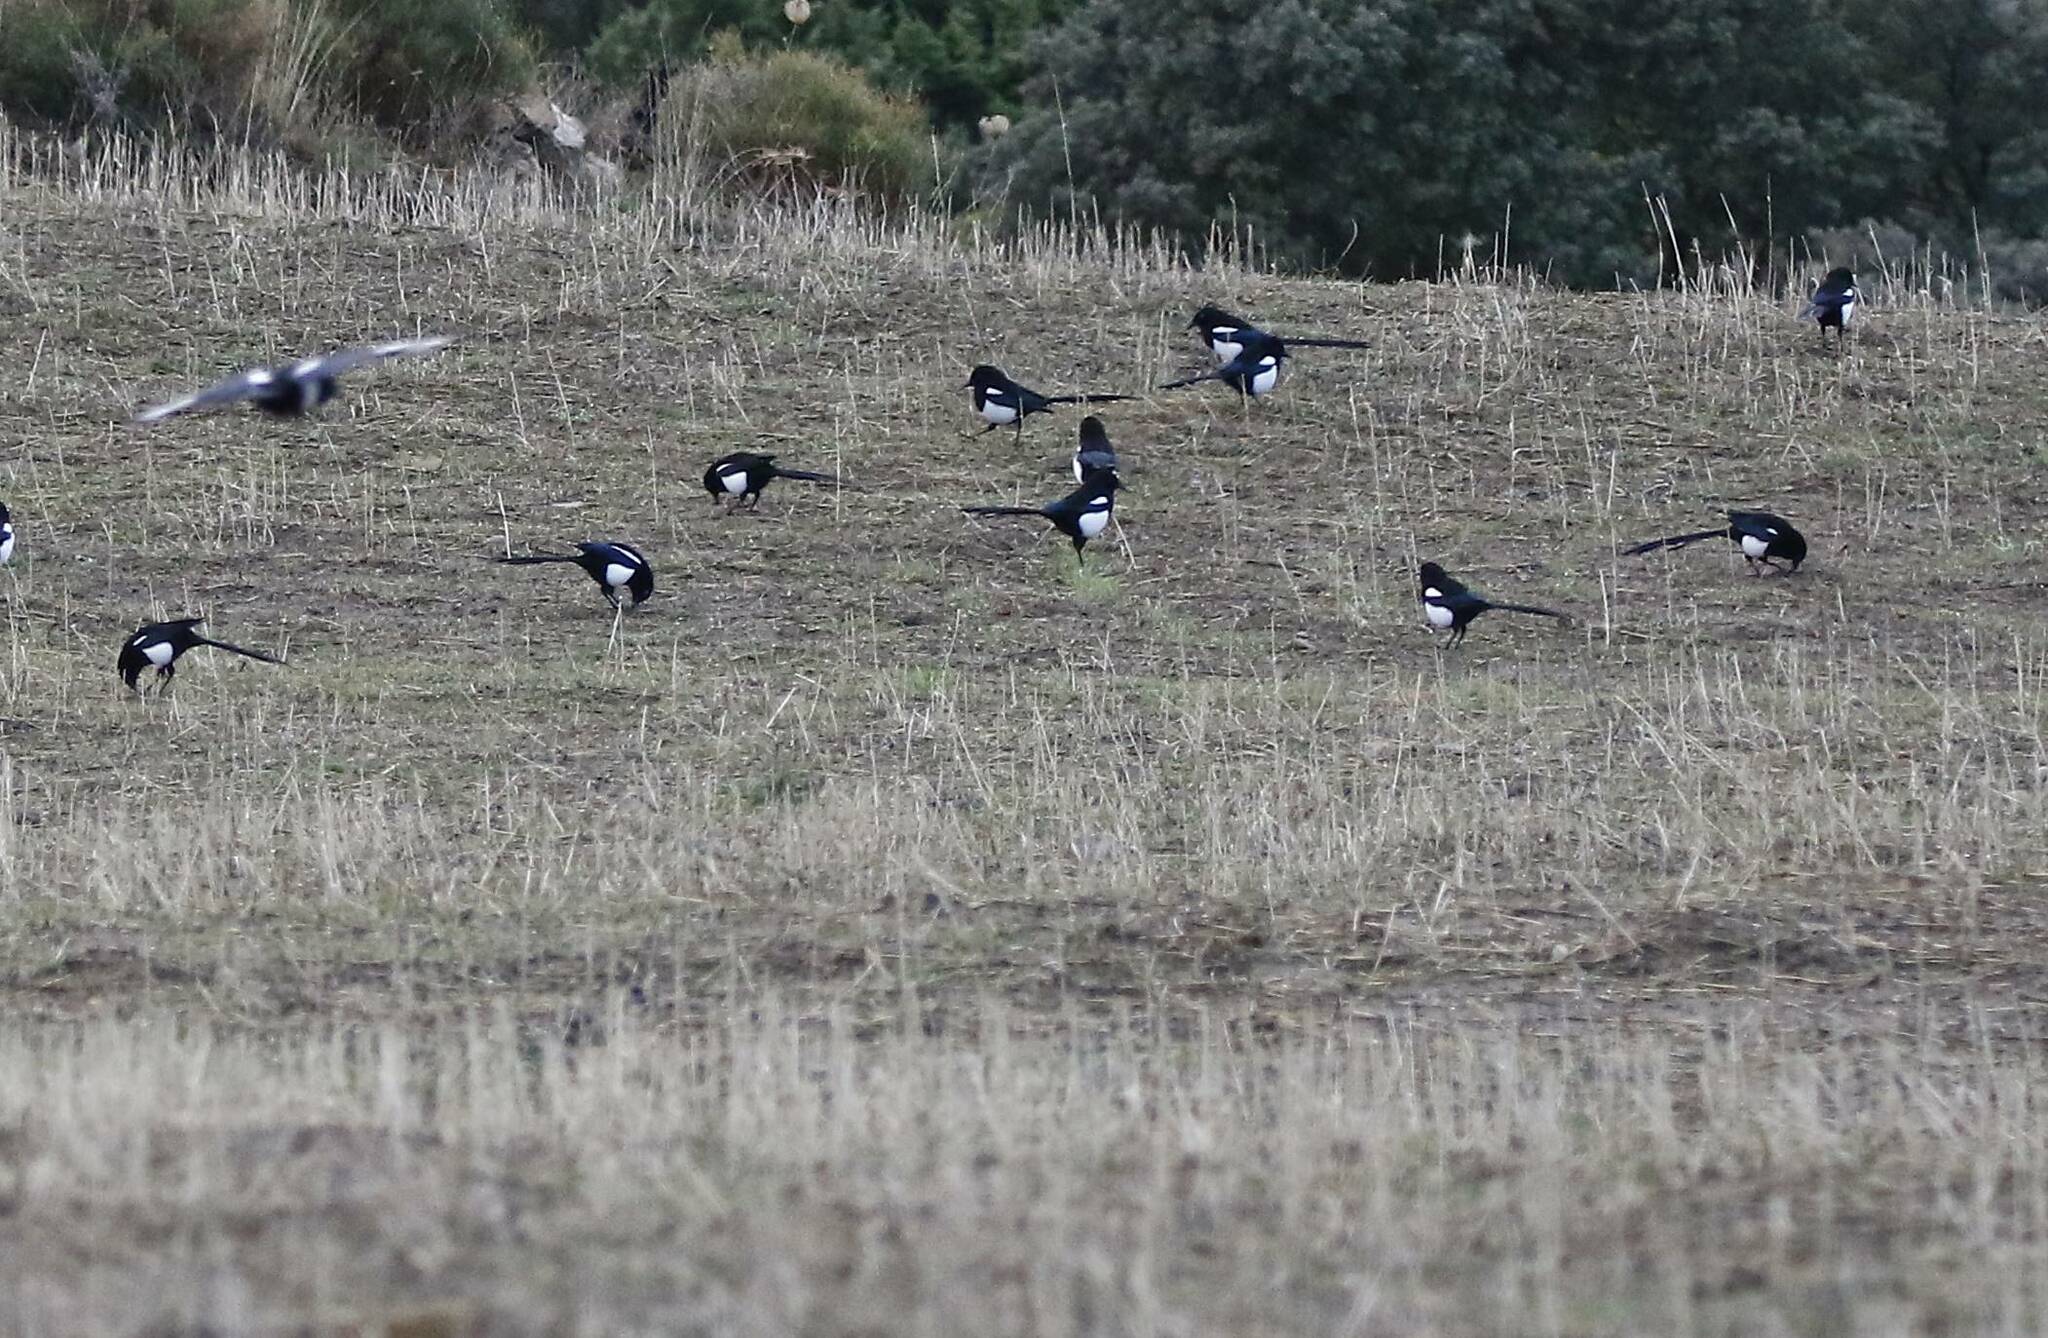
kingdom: Animalia
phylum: Chordata
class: Aves
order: Passeriformes
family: Corvidae
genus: Pica
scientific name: Pica mauritanica
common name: Maghreb magpie
